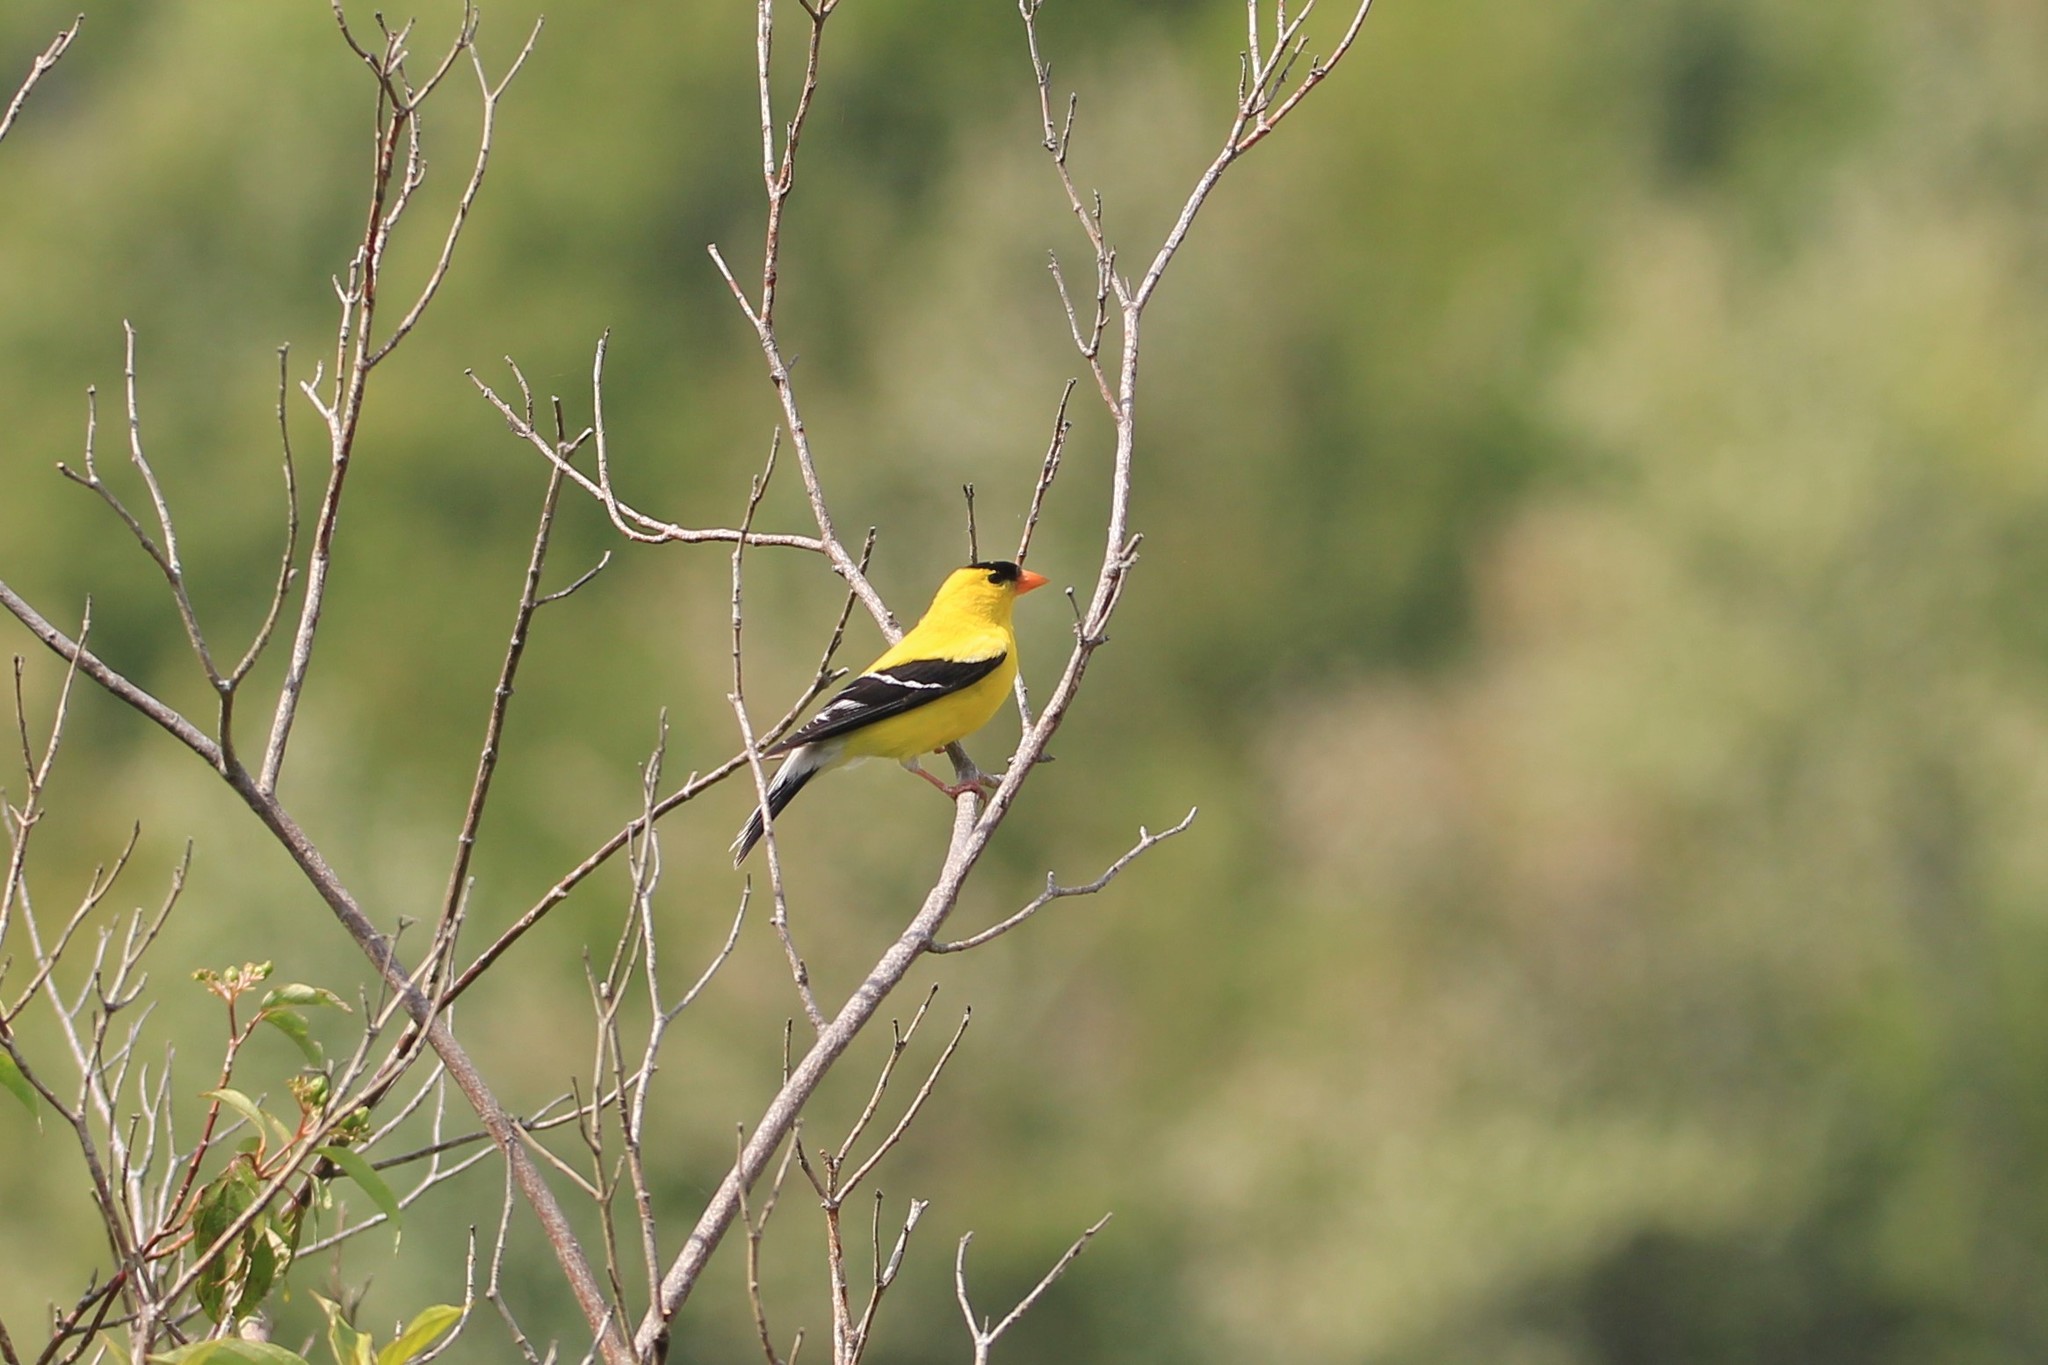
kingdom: Animalia
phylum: Chordata
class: Aves
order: Passeriformes
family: Fringillidae
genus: Spinus
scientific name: Spinus tristis
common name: American goldfinch
